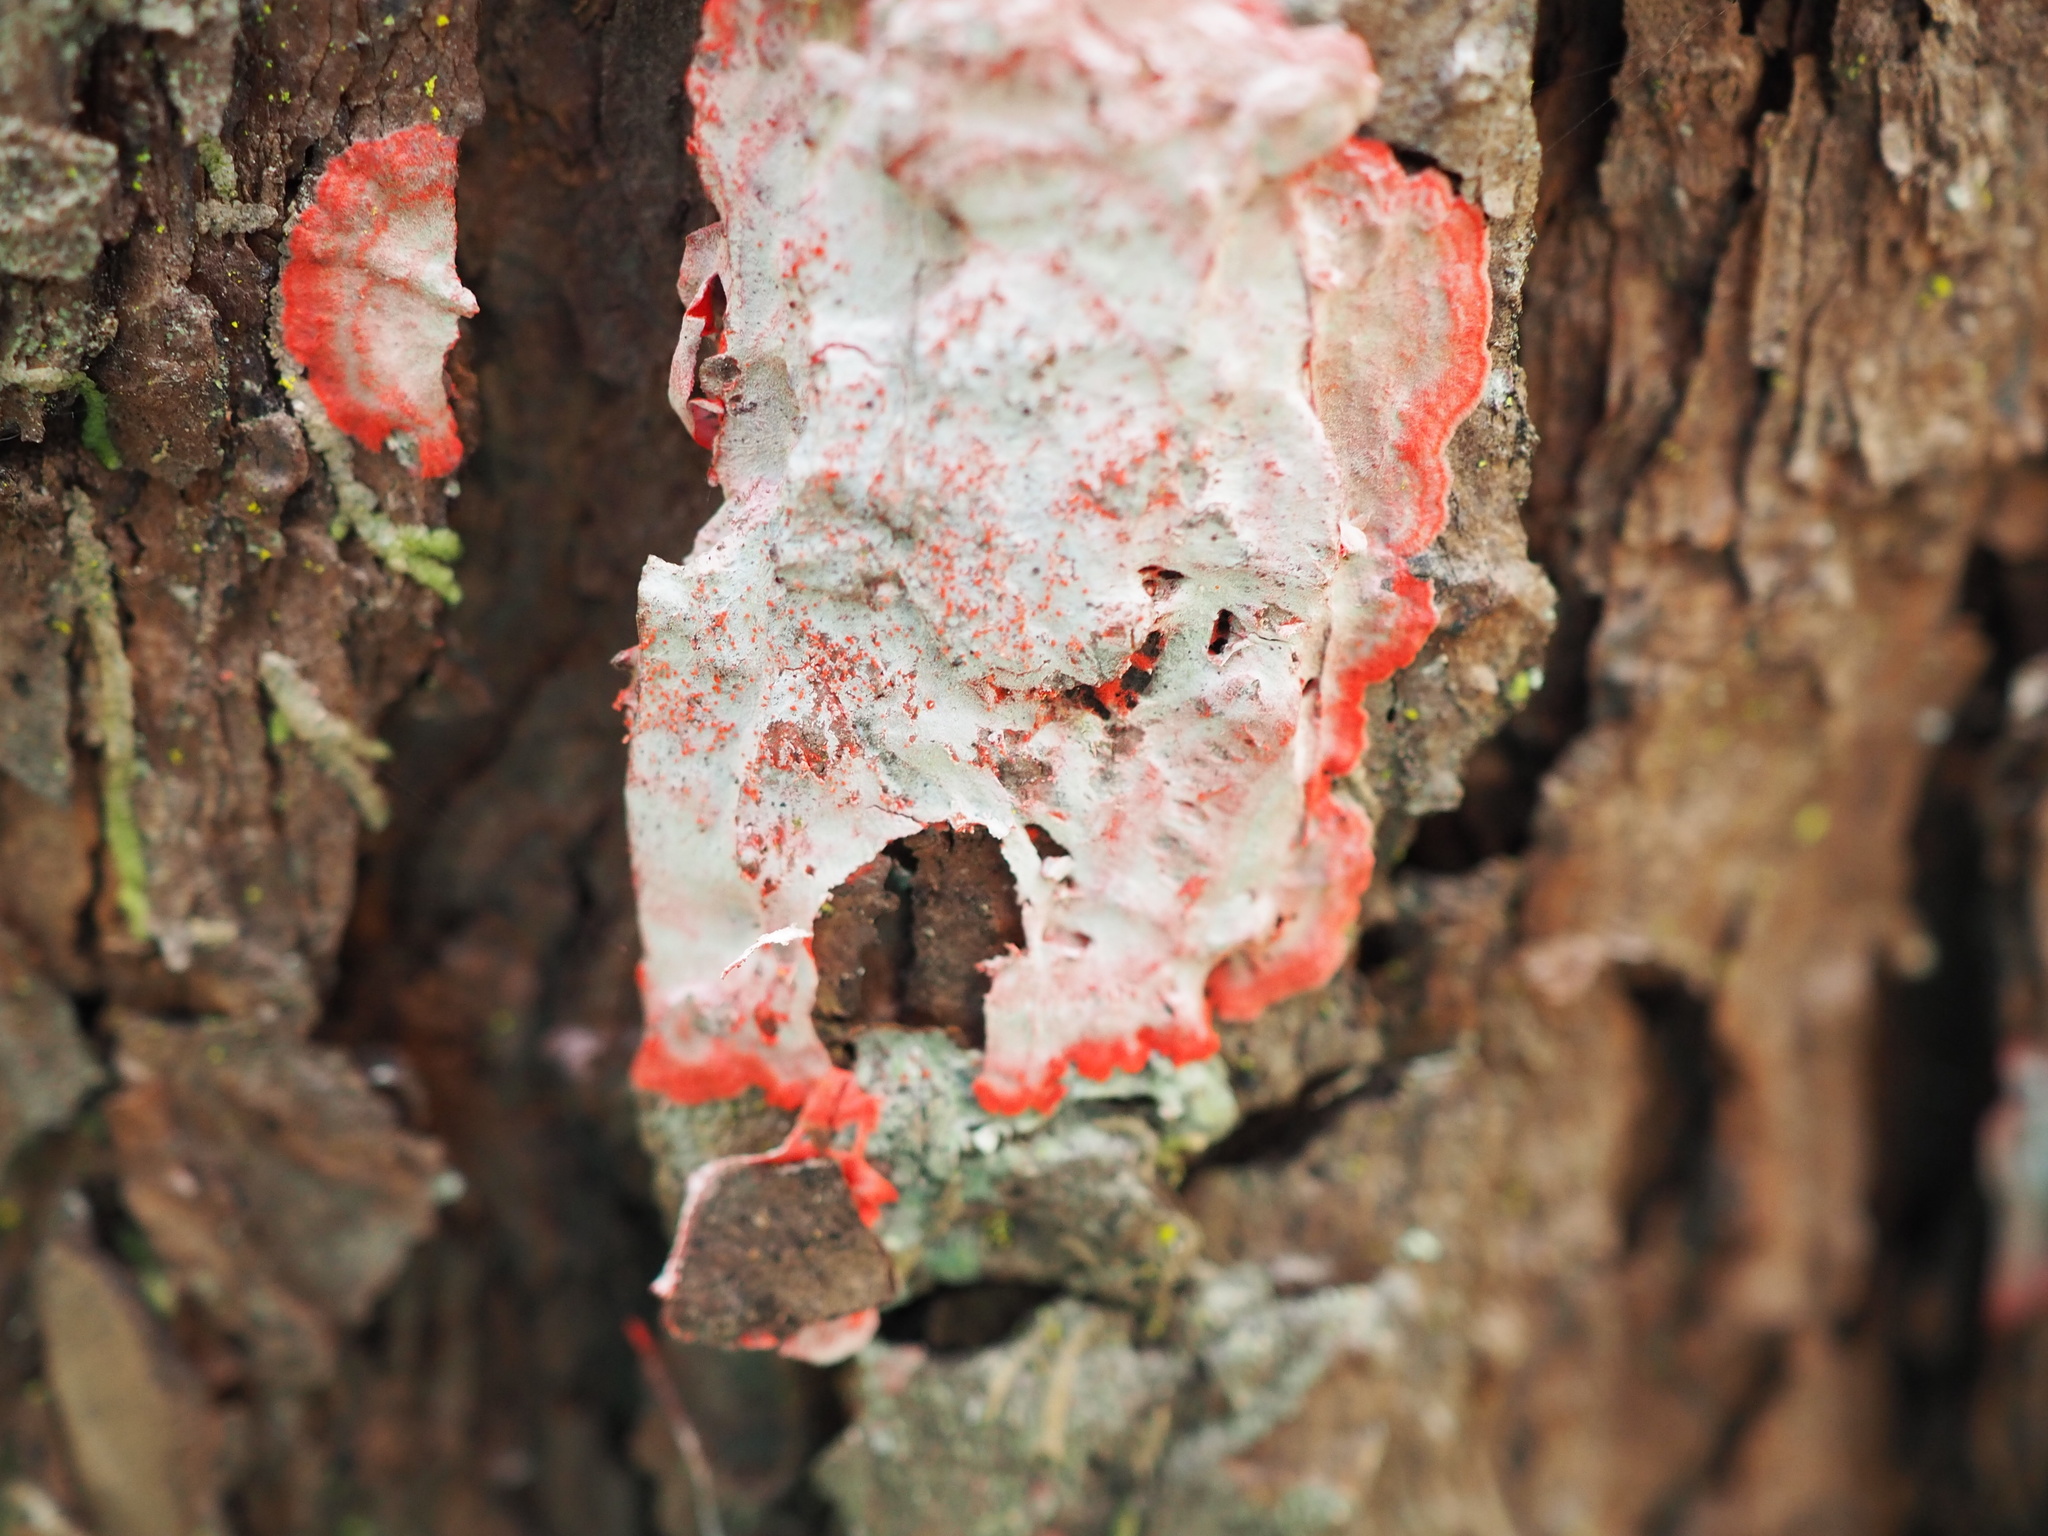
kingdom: Fungi
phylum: Ascomycota
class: Arthoniomycetes
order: Arthoniales
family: Arthoniaceae
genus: Herpothallon
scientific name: Herpothallon rubrocinctum
